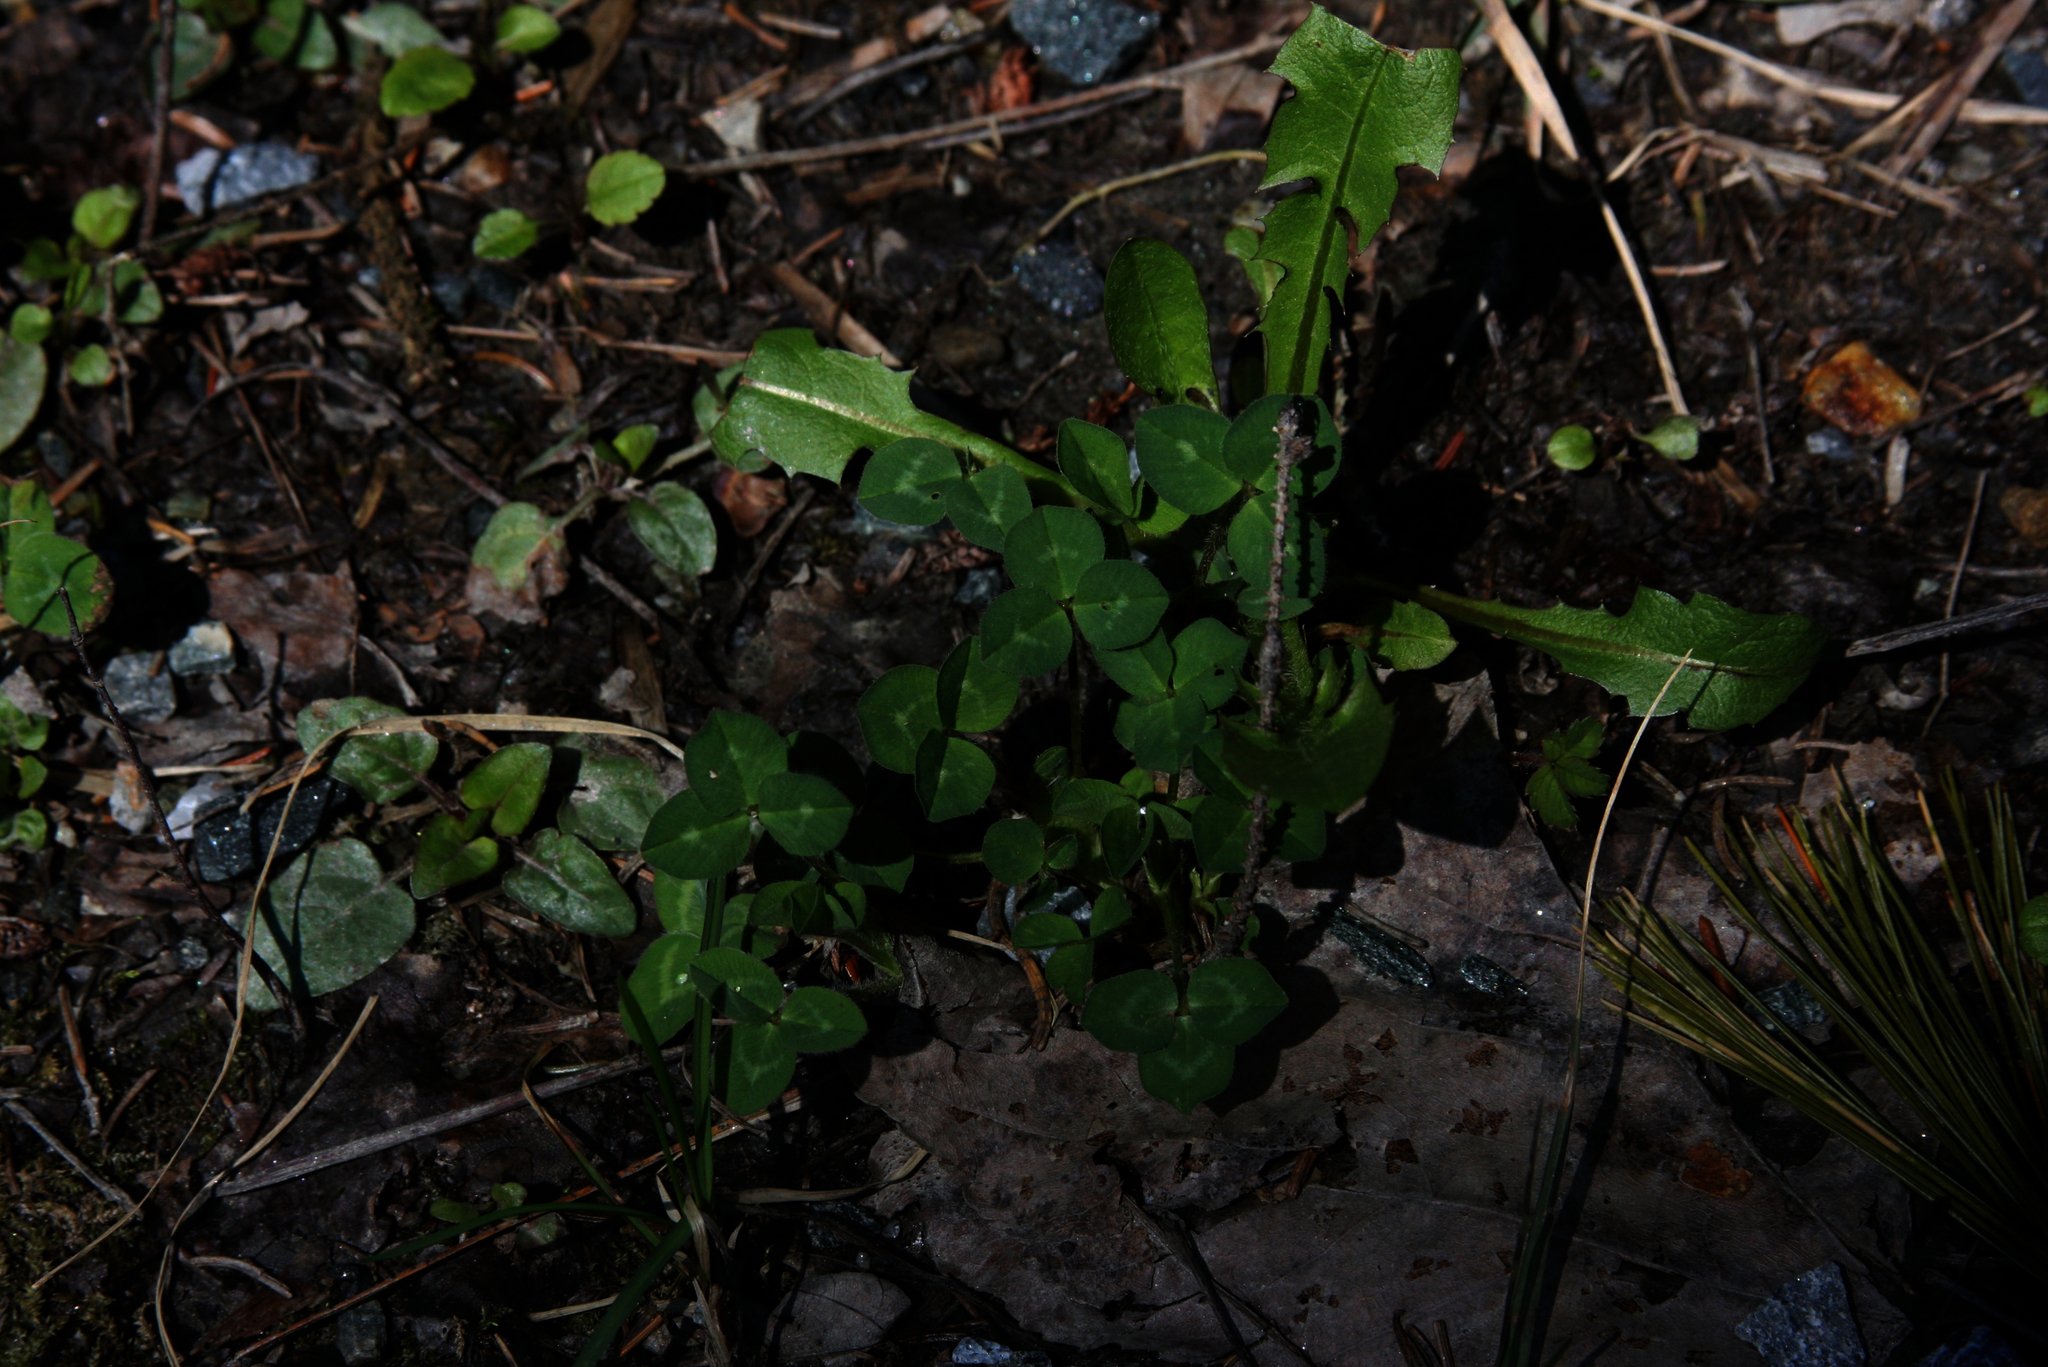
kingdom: Plantae
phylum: Tracheophyta
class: Magnoliopsida
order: Asterales
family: Asteraceae
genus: Taraxacum
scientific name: Taraxacum officinale
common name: Common dandelion
